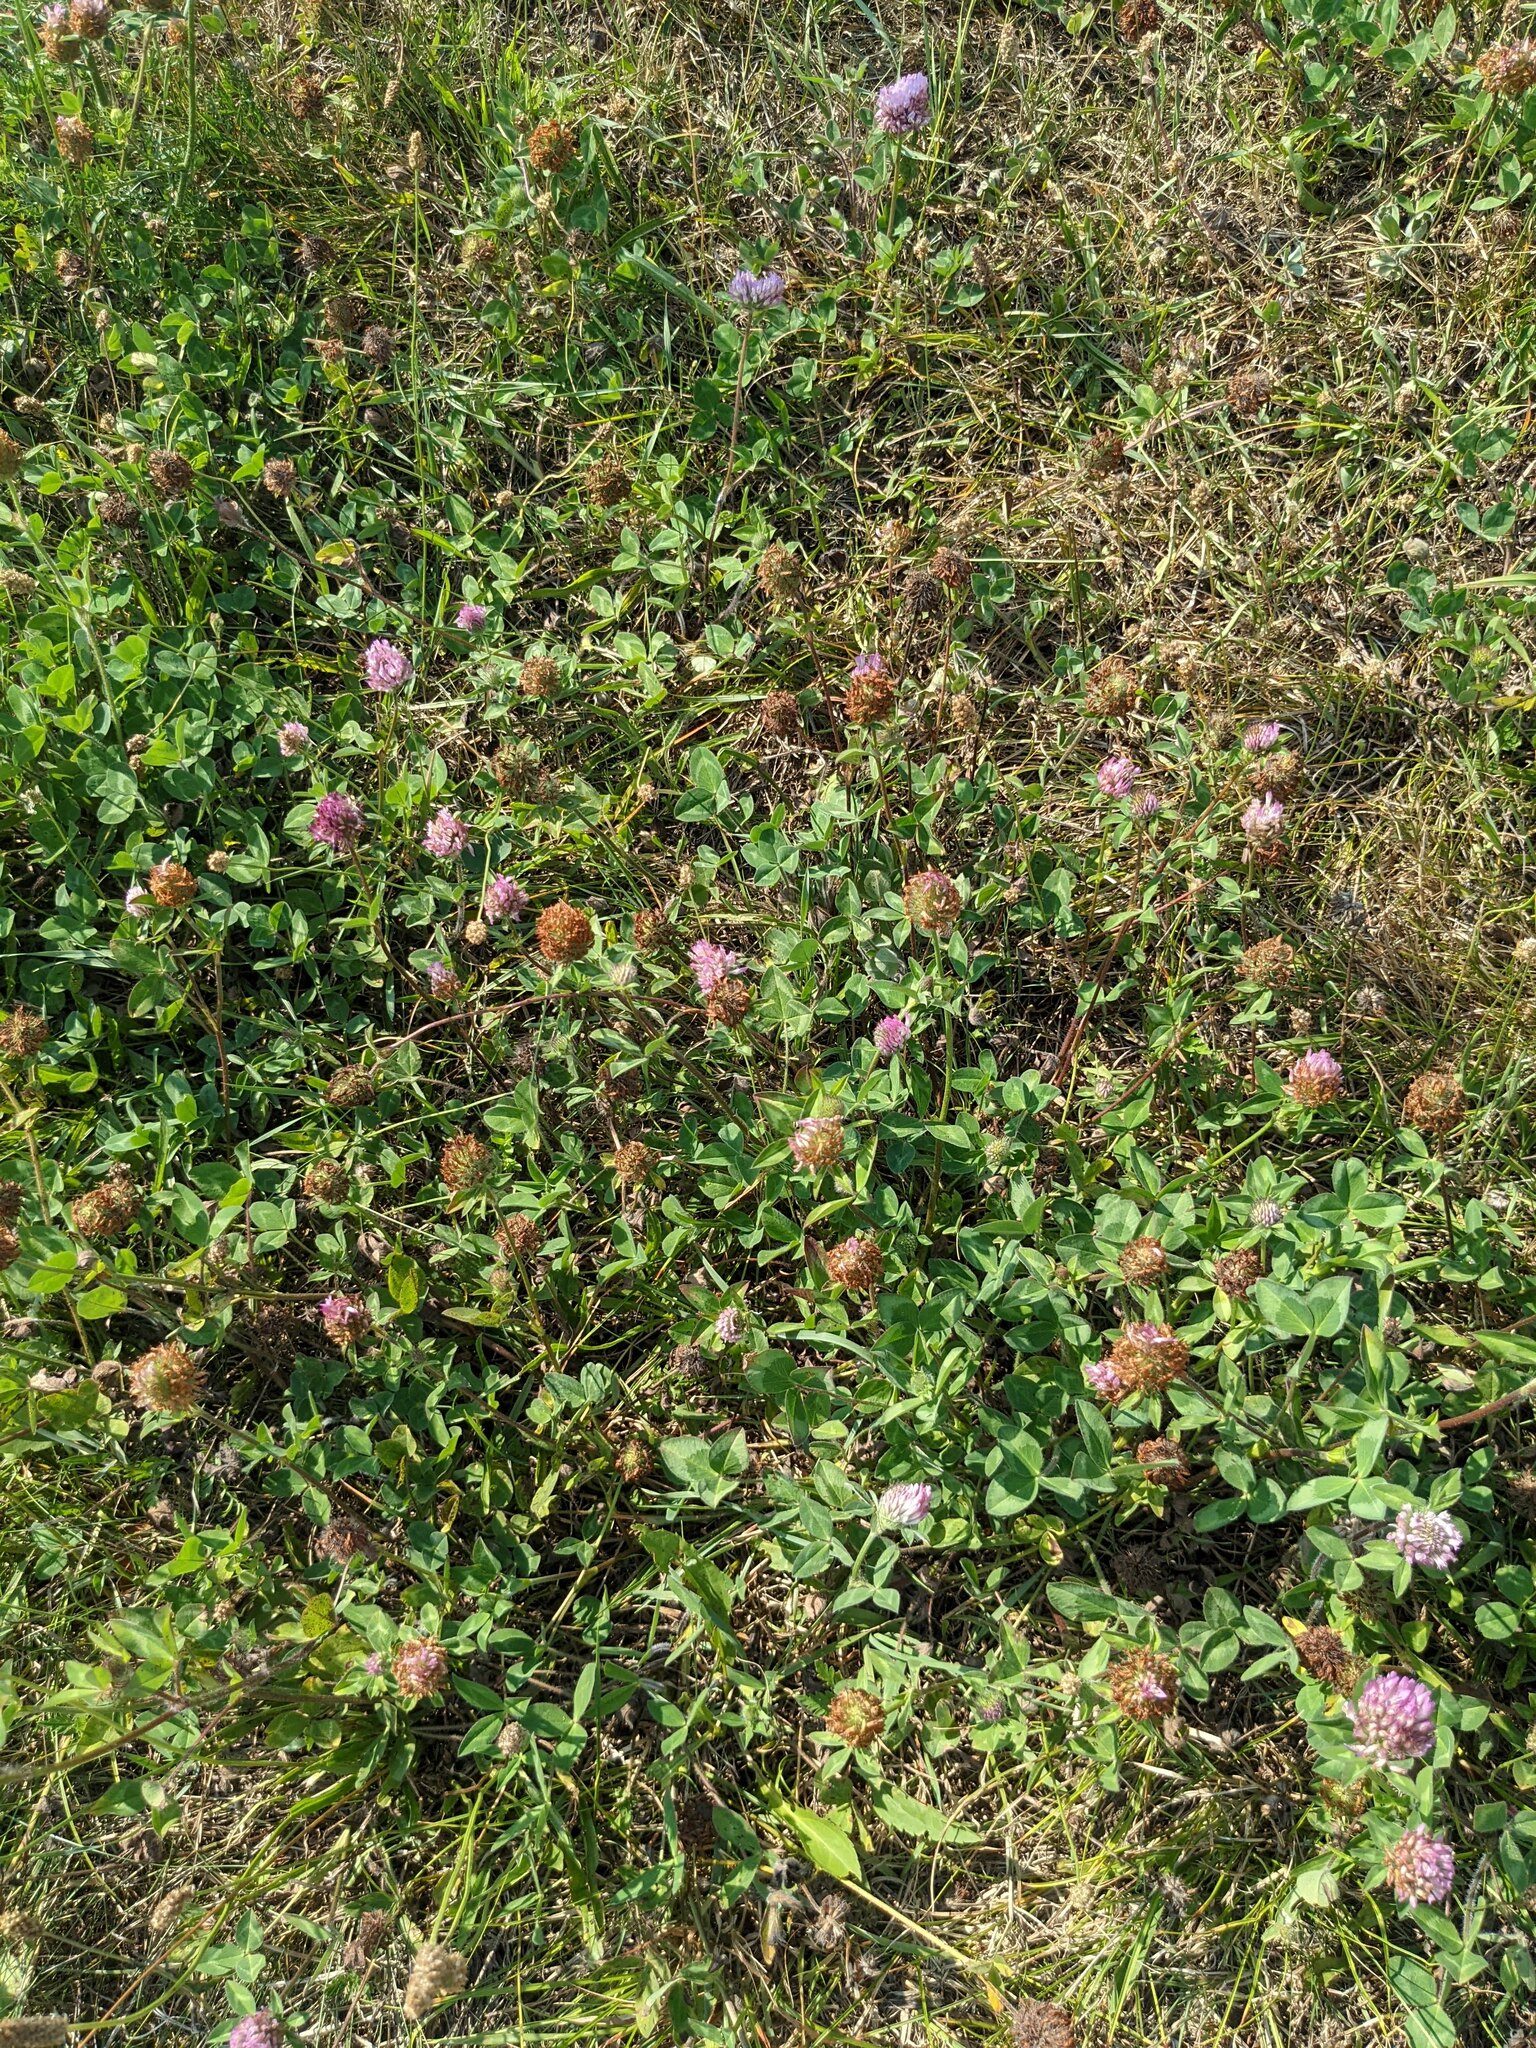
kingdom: Plantae
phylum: Tracheophyta
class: Magnoliopsida
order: Fabales
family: Fabaceae
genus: Trifolium
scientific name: Trifolium pratense
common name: Red clover
